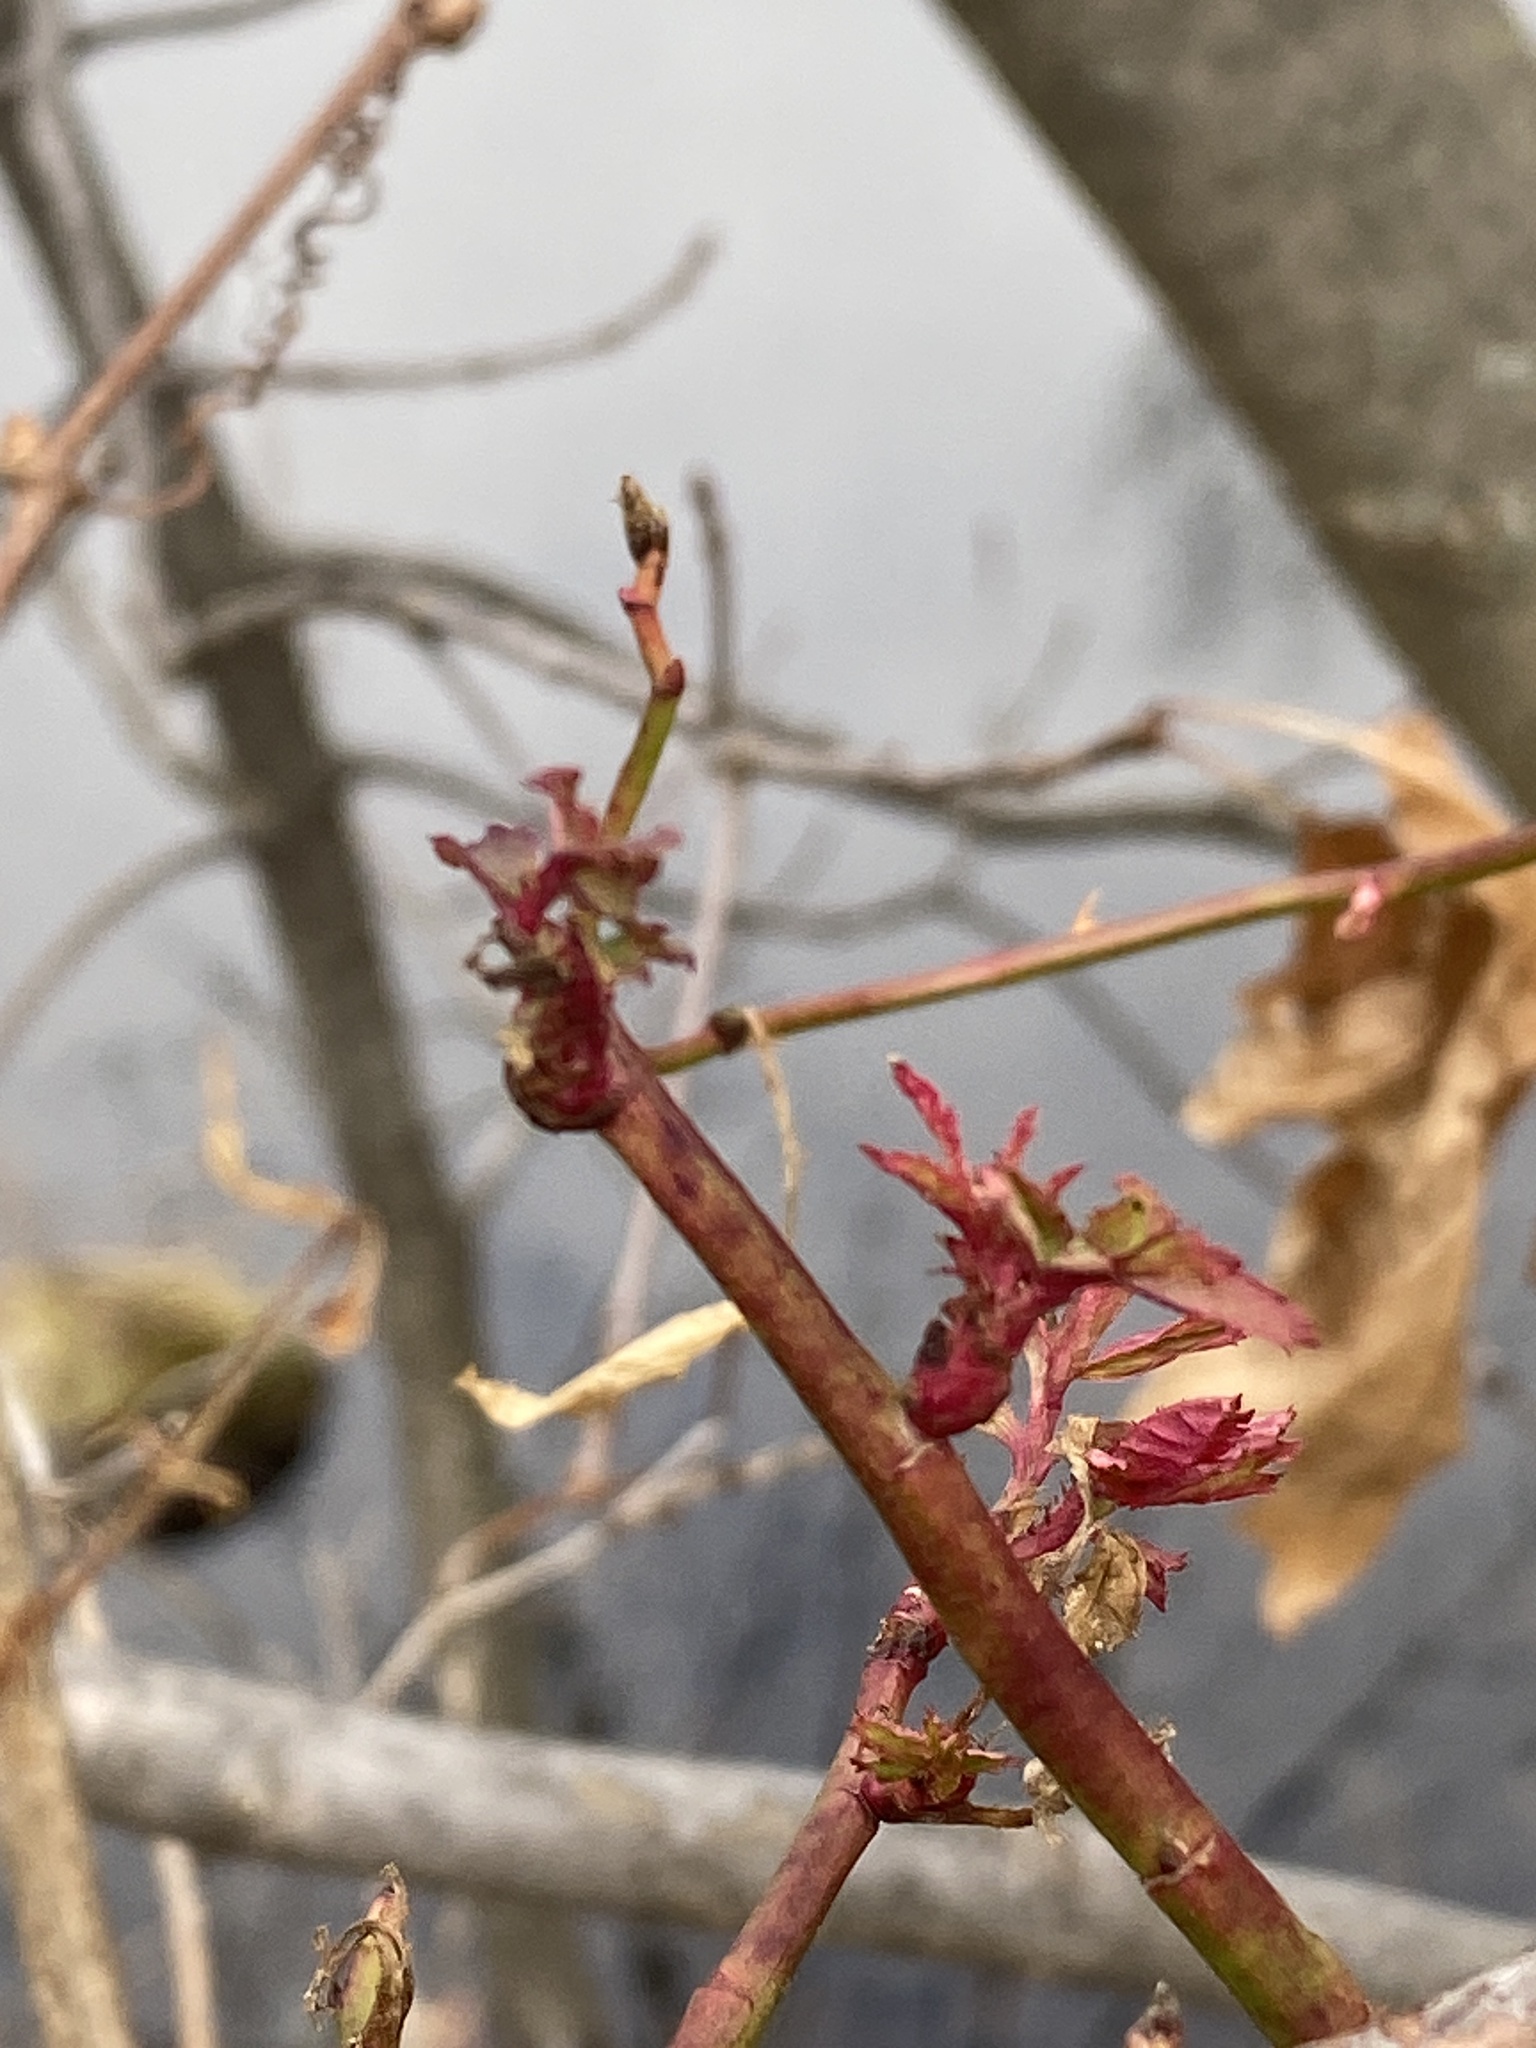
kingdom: Viruses
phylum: Negarnaviricota
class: Ellioviricetes
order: Bunyavirales
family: Fimoviridae
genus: Emaravirus
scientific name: Emaravirus rosae
